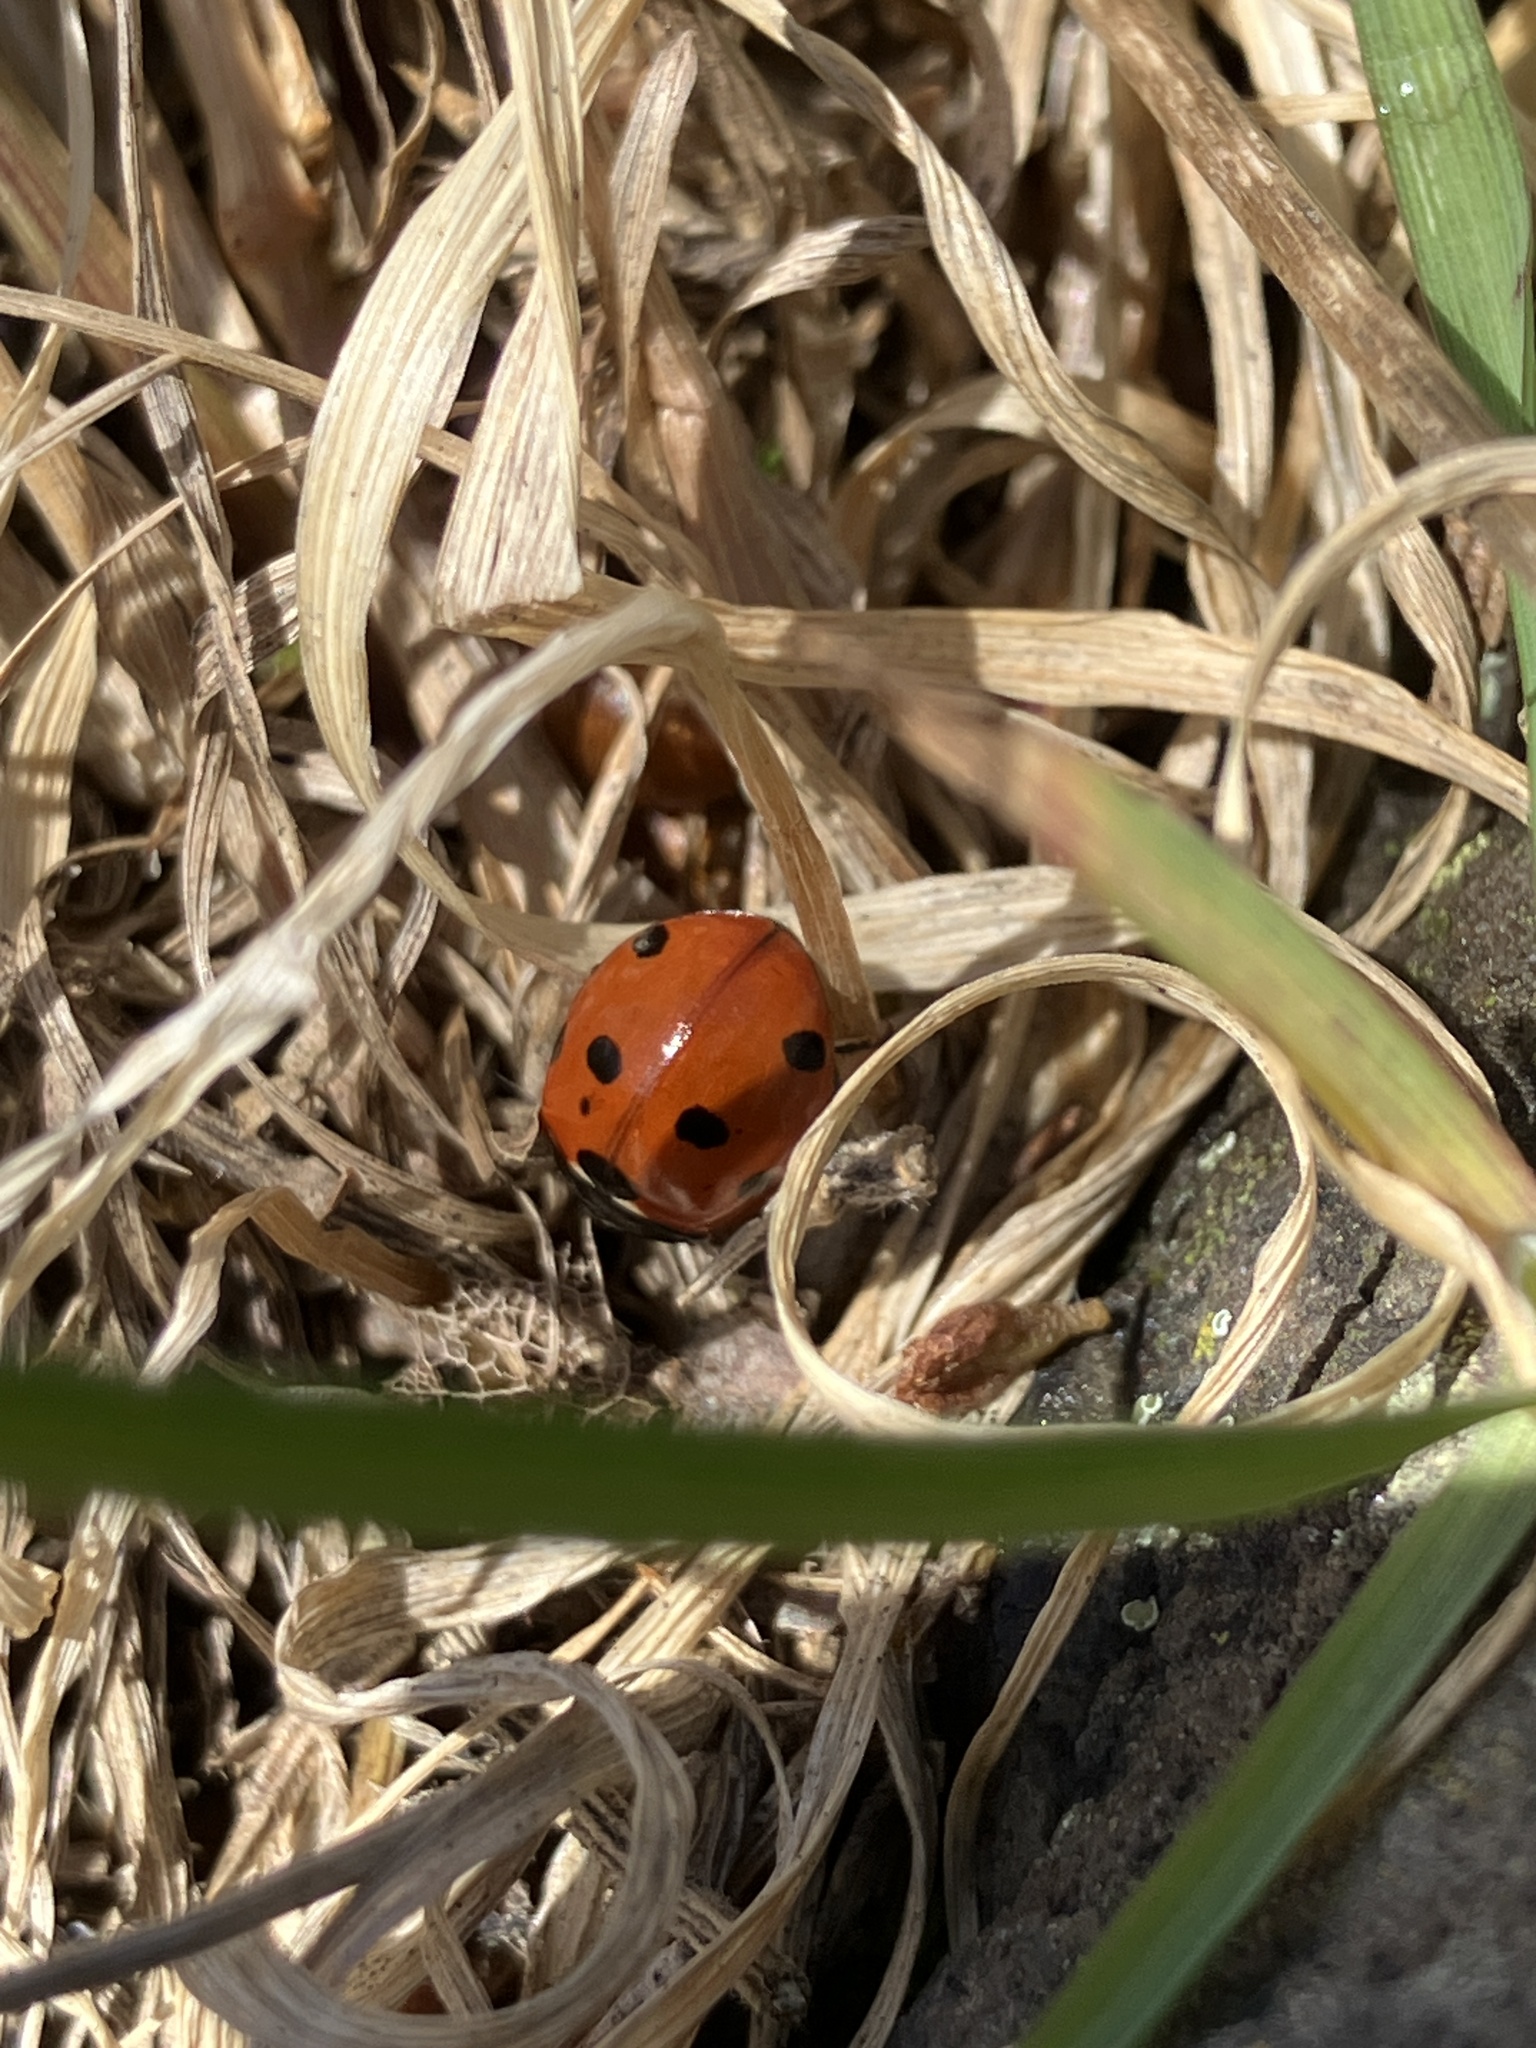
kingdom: Animalia
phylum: Arthropoda
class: Insecta
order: Coleoptera
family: Coccinellidae
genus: Coccinella
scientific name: Coccinella septempunctata
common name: Sevenspotted lady beetle
